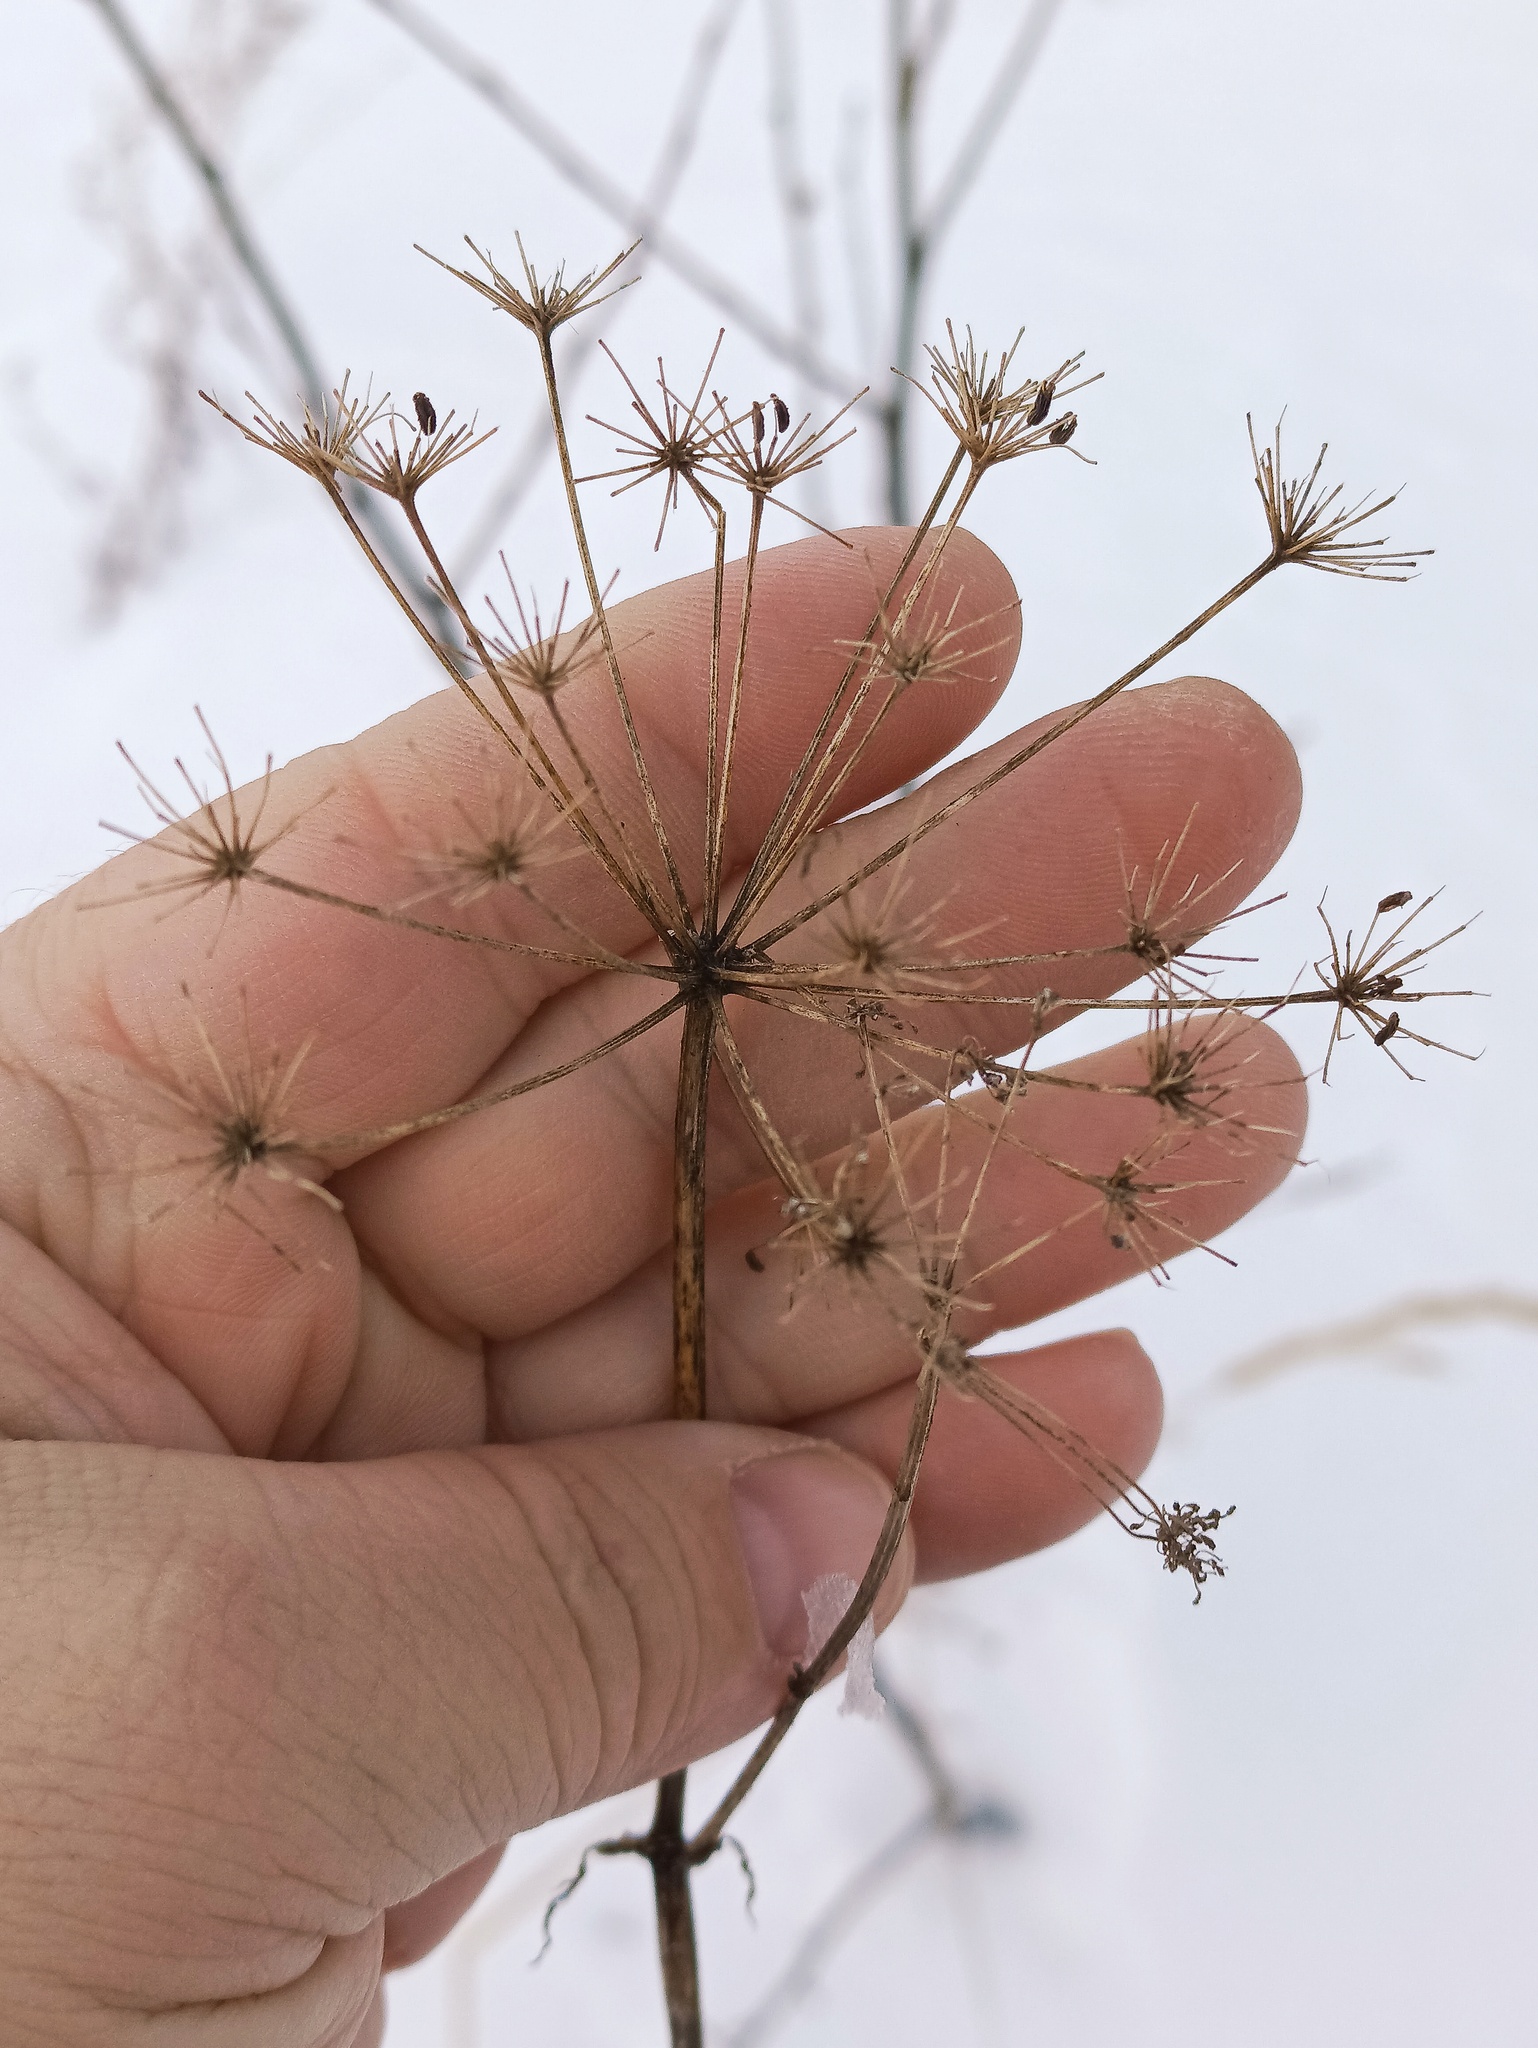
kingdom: Plantae
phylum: Tracheophyta
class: Magnoliopsida
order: Apiales
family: Apiaceae
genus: Anthriscus
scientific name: Anthriscus sylvestris
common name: Cow parsley
